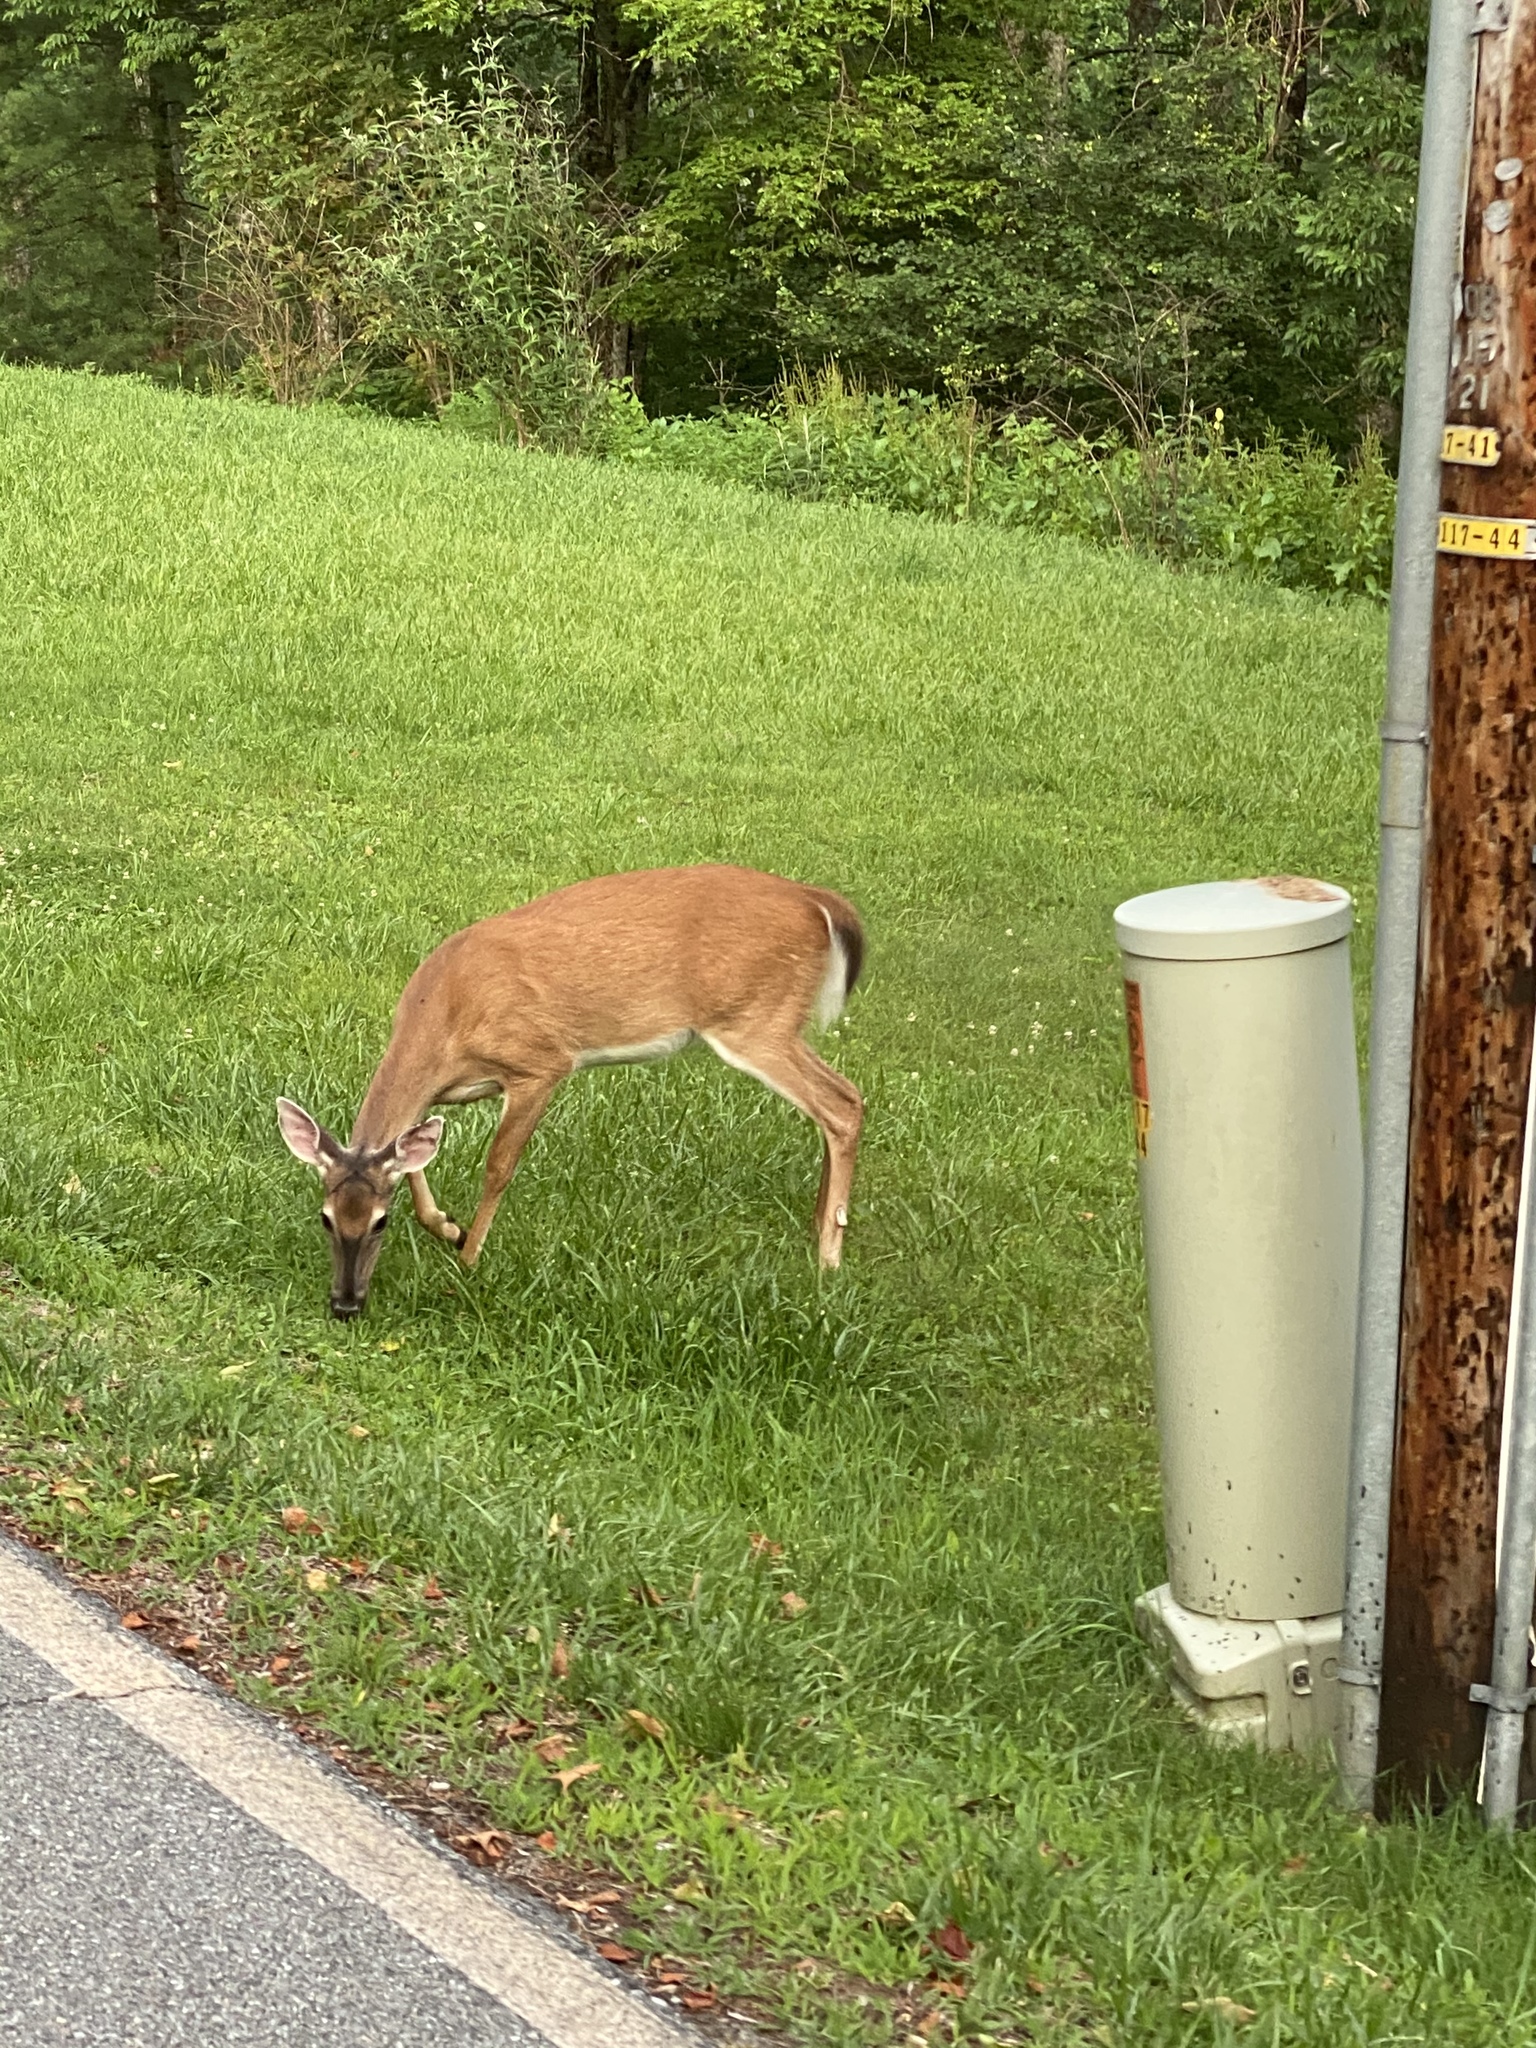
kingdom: Animalia
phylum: Chordata
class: Mammalia
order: Artiodactyla
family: Cervidae
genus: Odocoileus
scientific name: Odocoileus virginianus
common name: White-tailed deer
